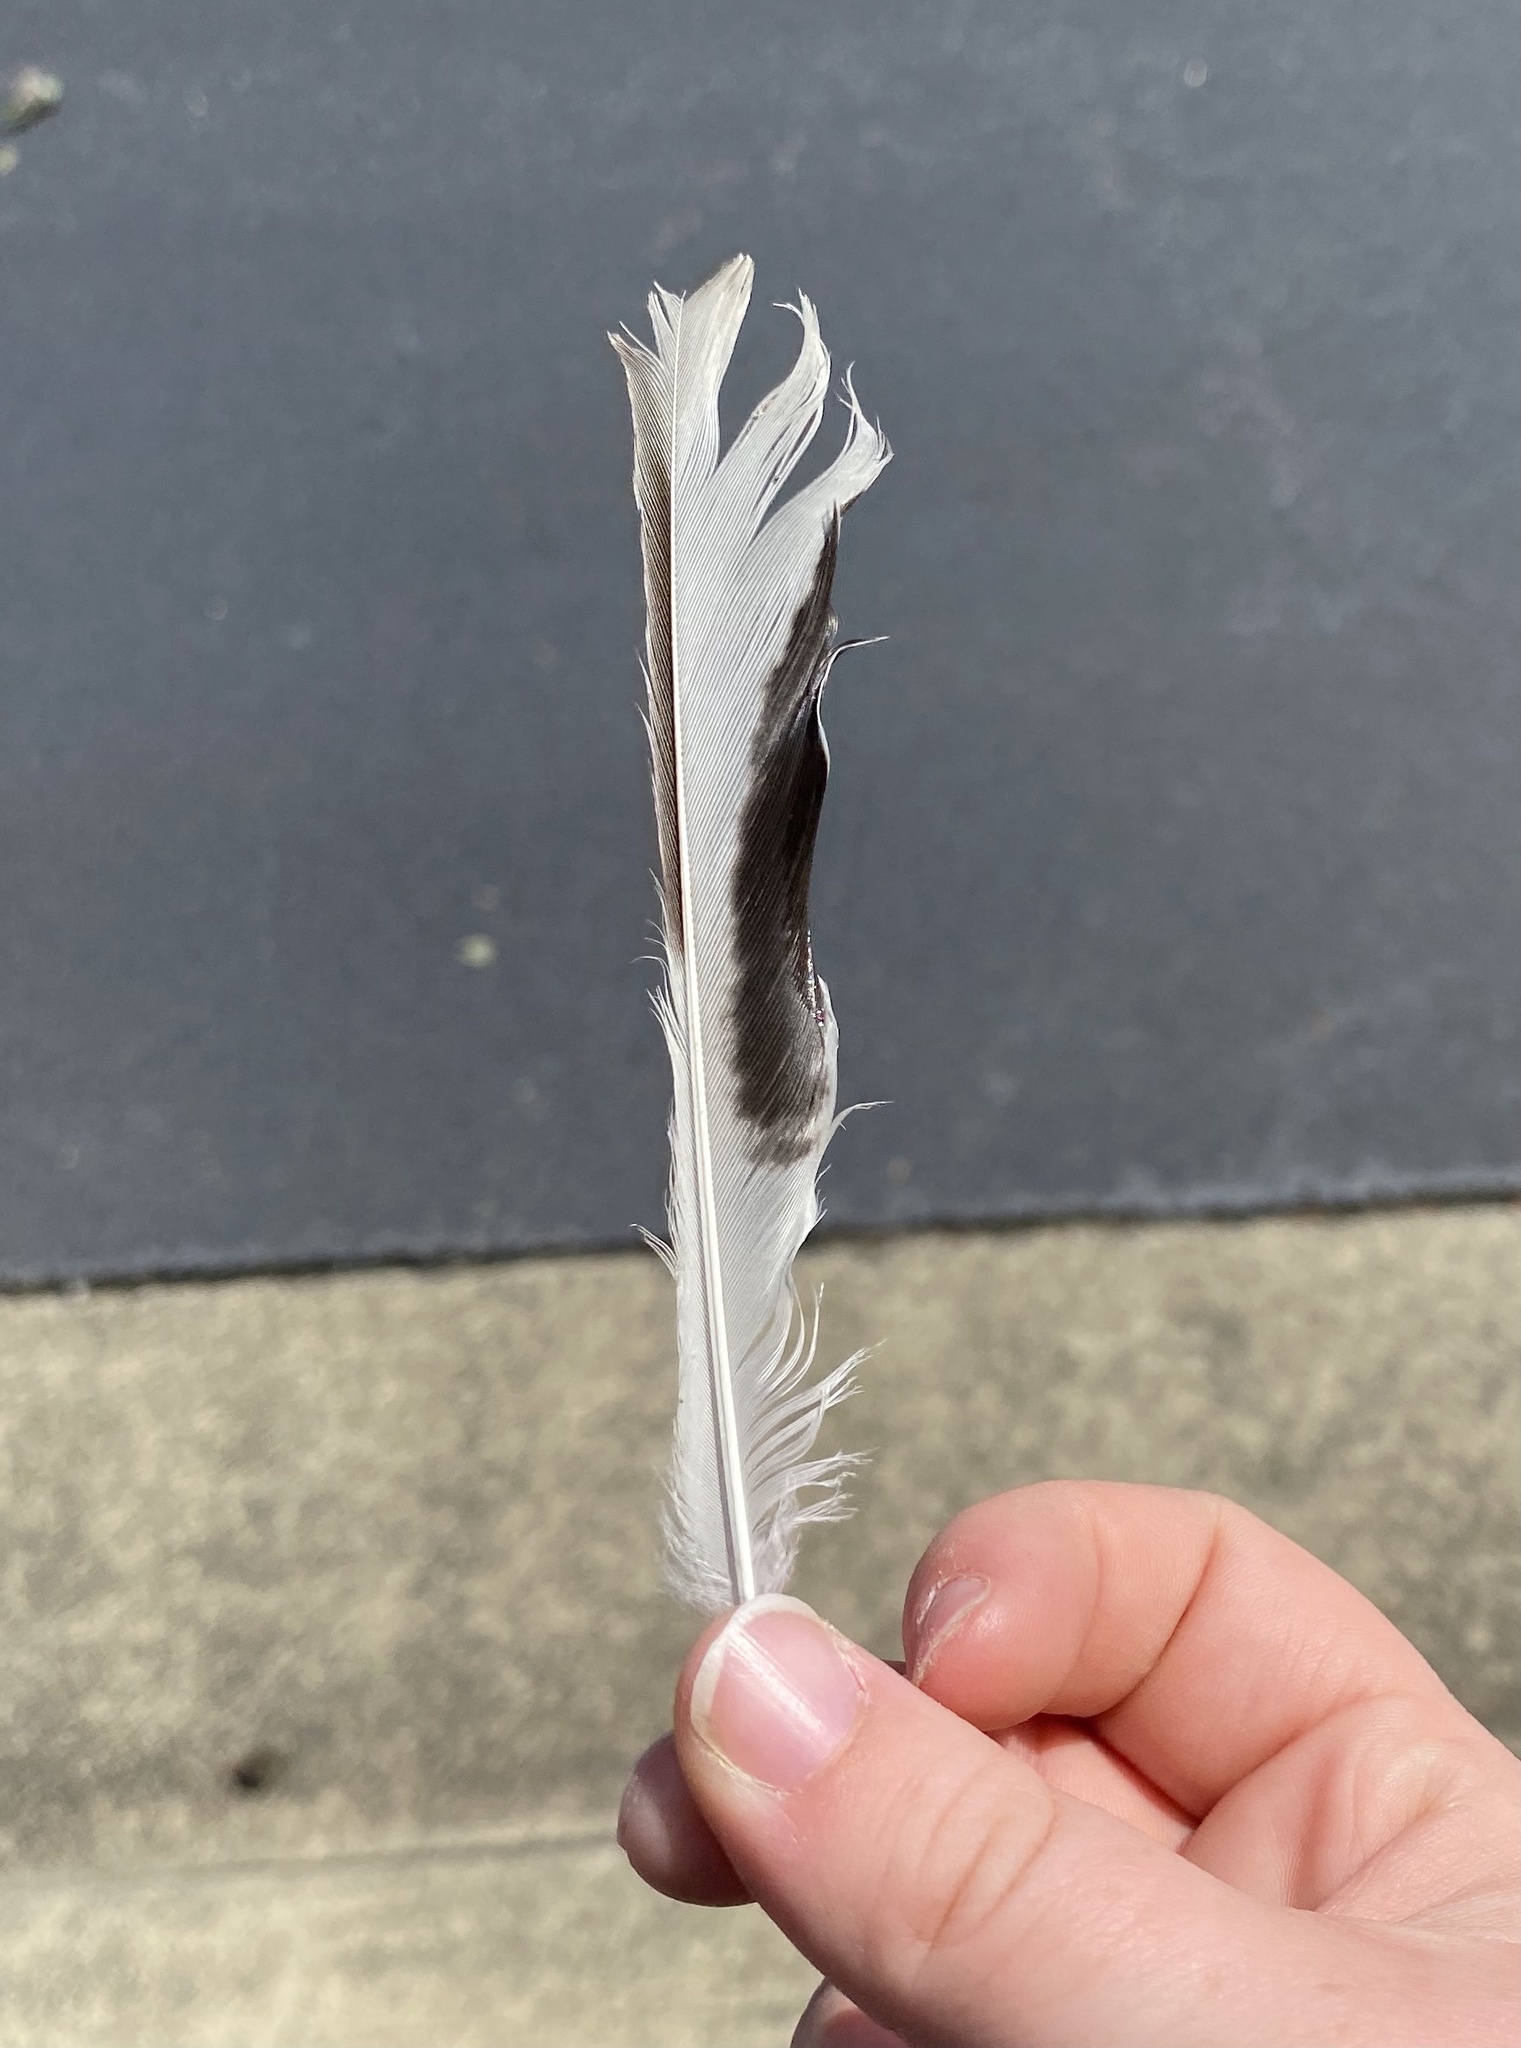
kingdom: Animalia
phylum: Chordata
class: Aves
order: Passeriformes
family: Mimidae
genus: Mimus
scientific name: Mimus polyglottos
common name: Northern mockingbird
